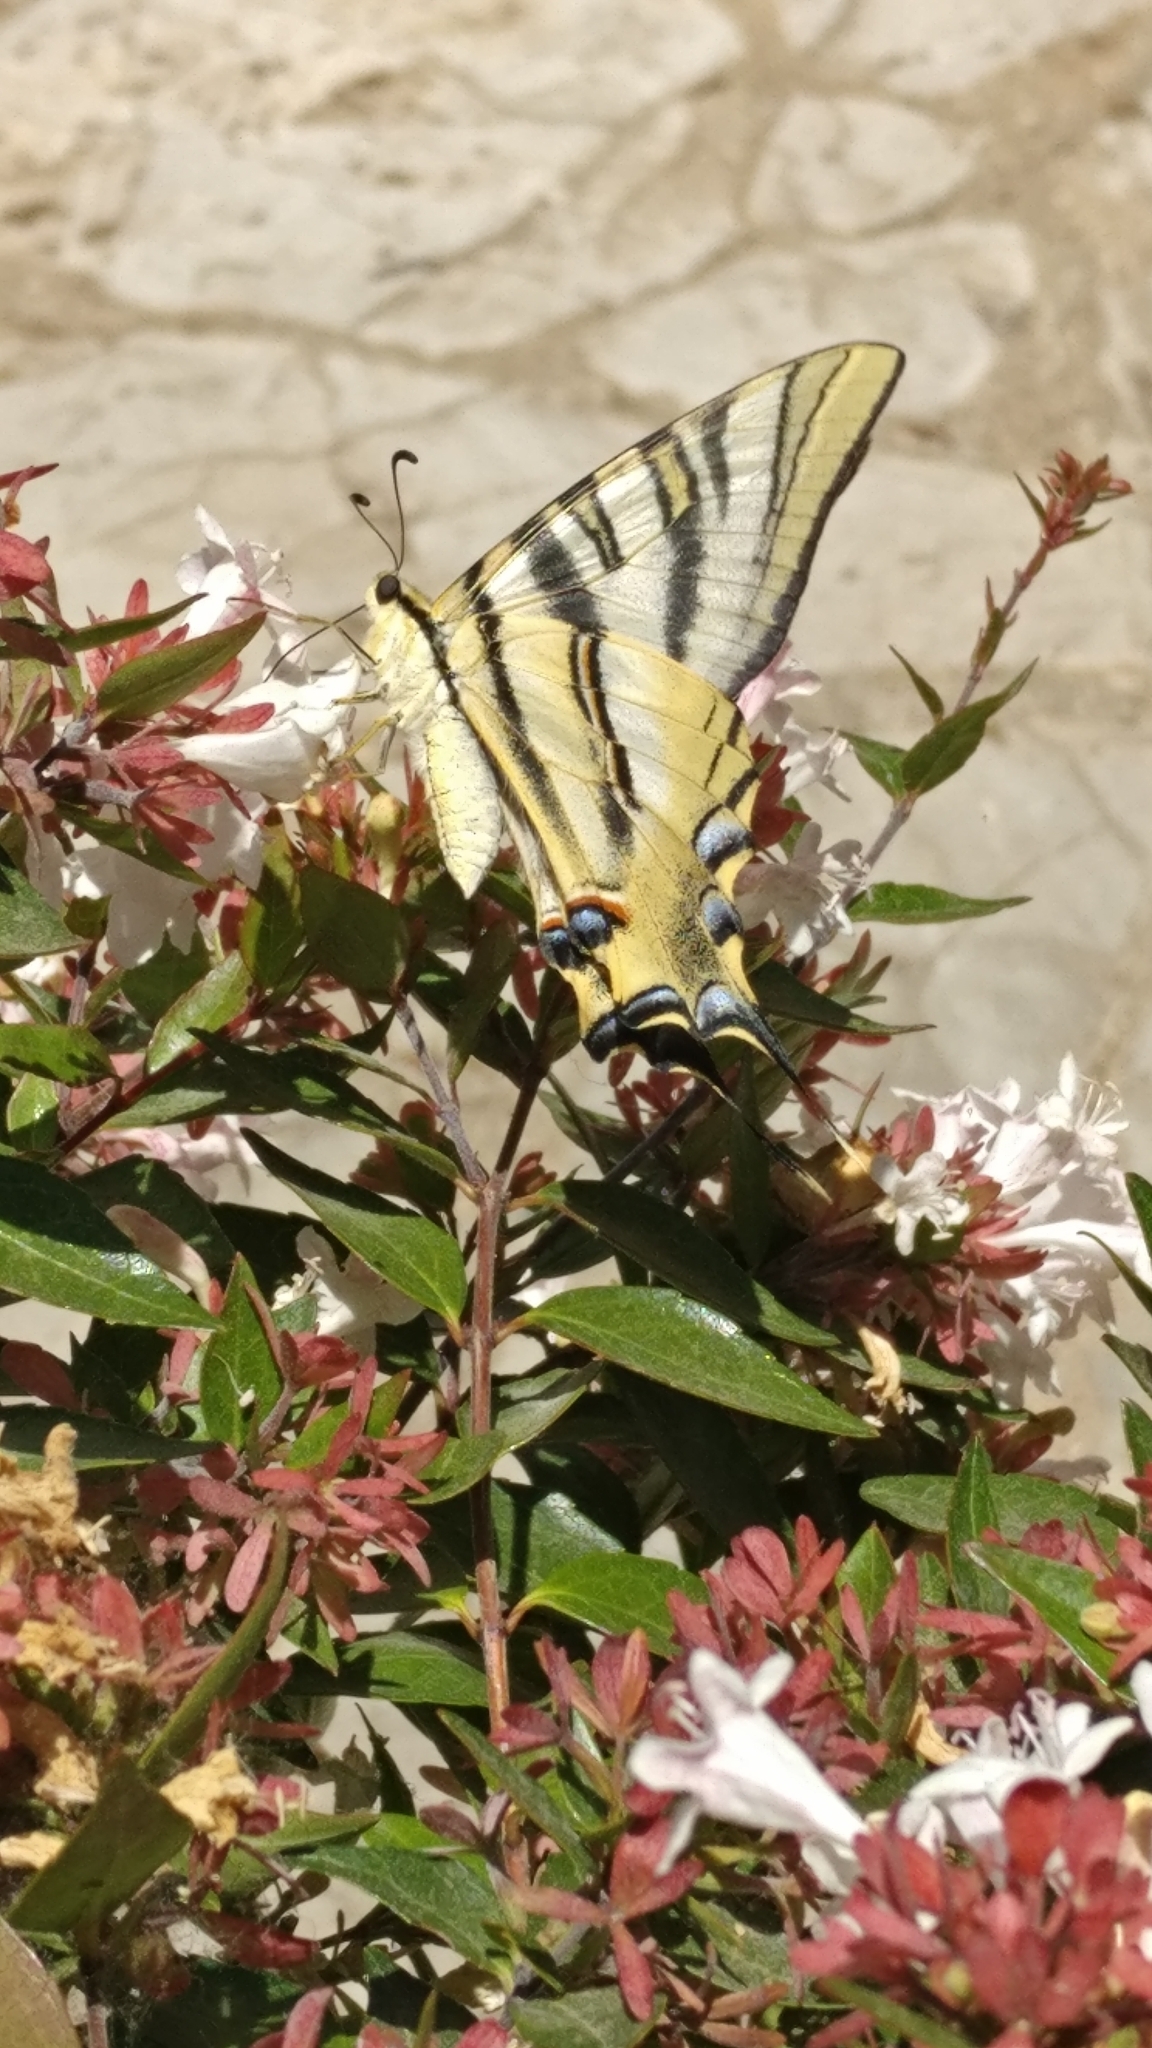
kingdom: Animalia
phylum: Arthropoda
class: Insecta
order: Lepidoptera
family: Papilionidae
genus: Iphiclides
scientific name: Iphiclides feisthamelii
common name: Iberian scarce swallowtail
